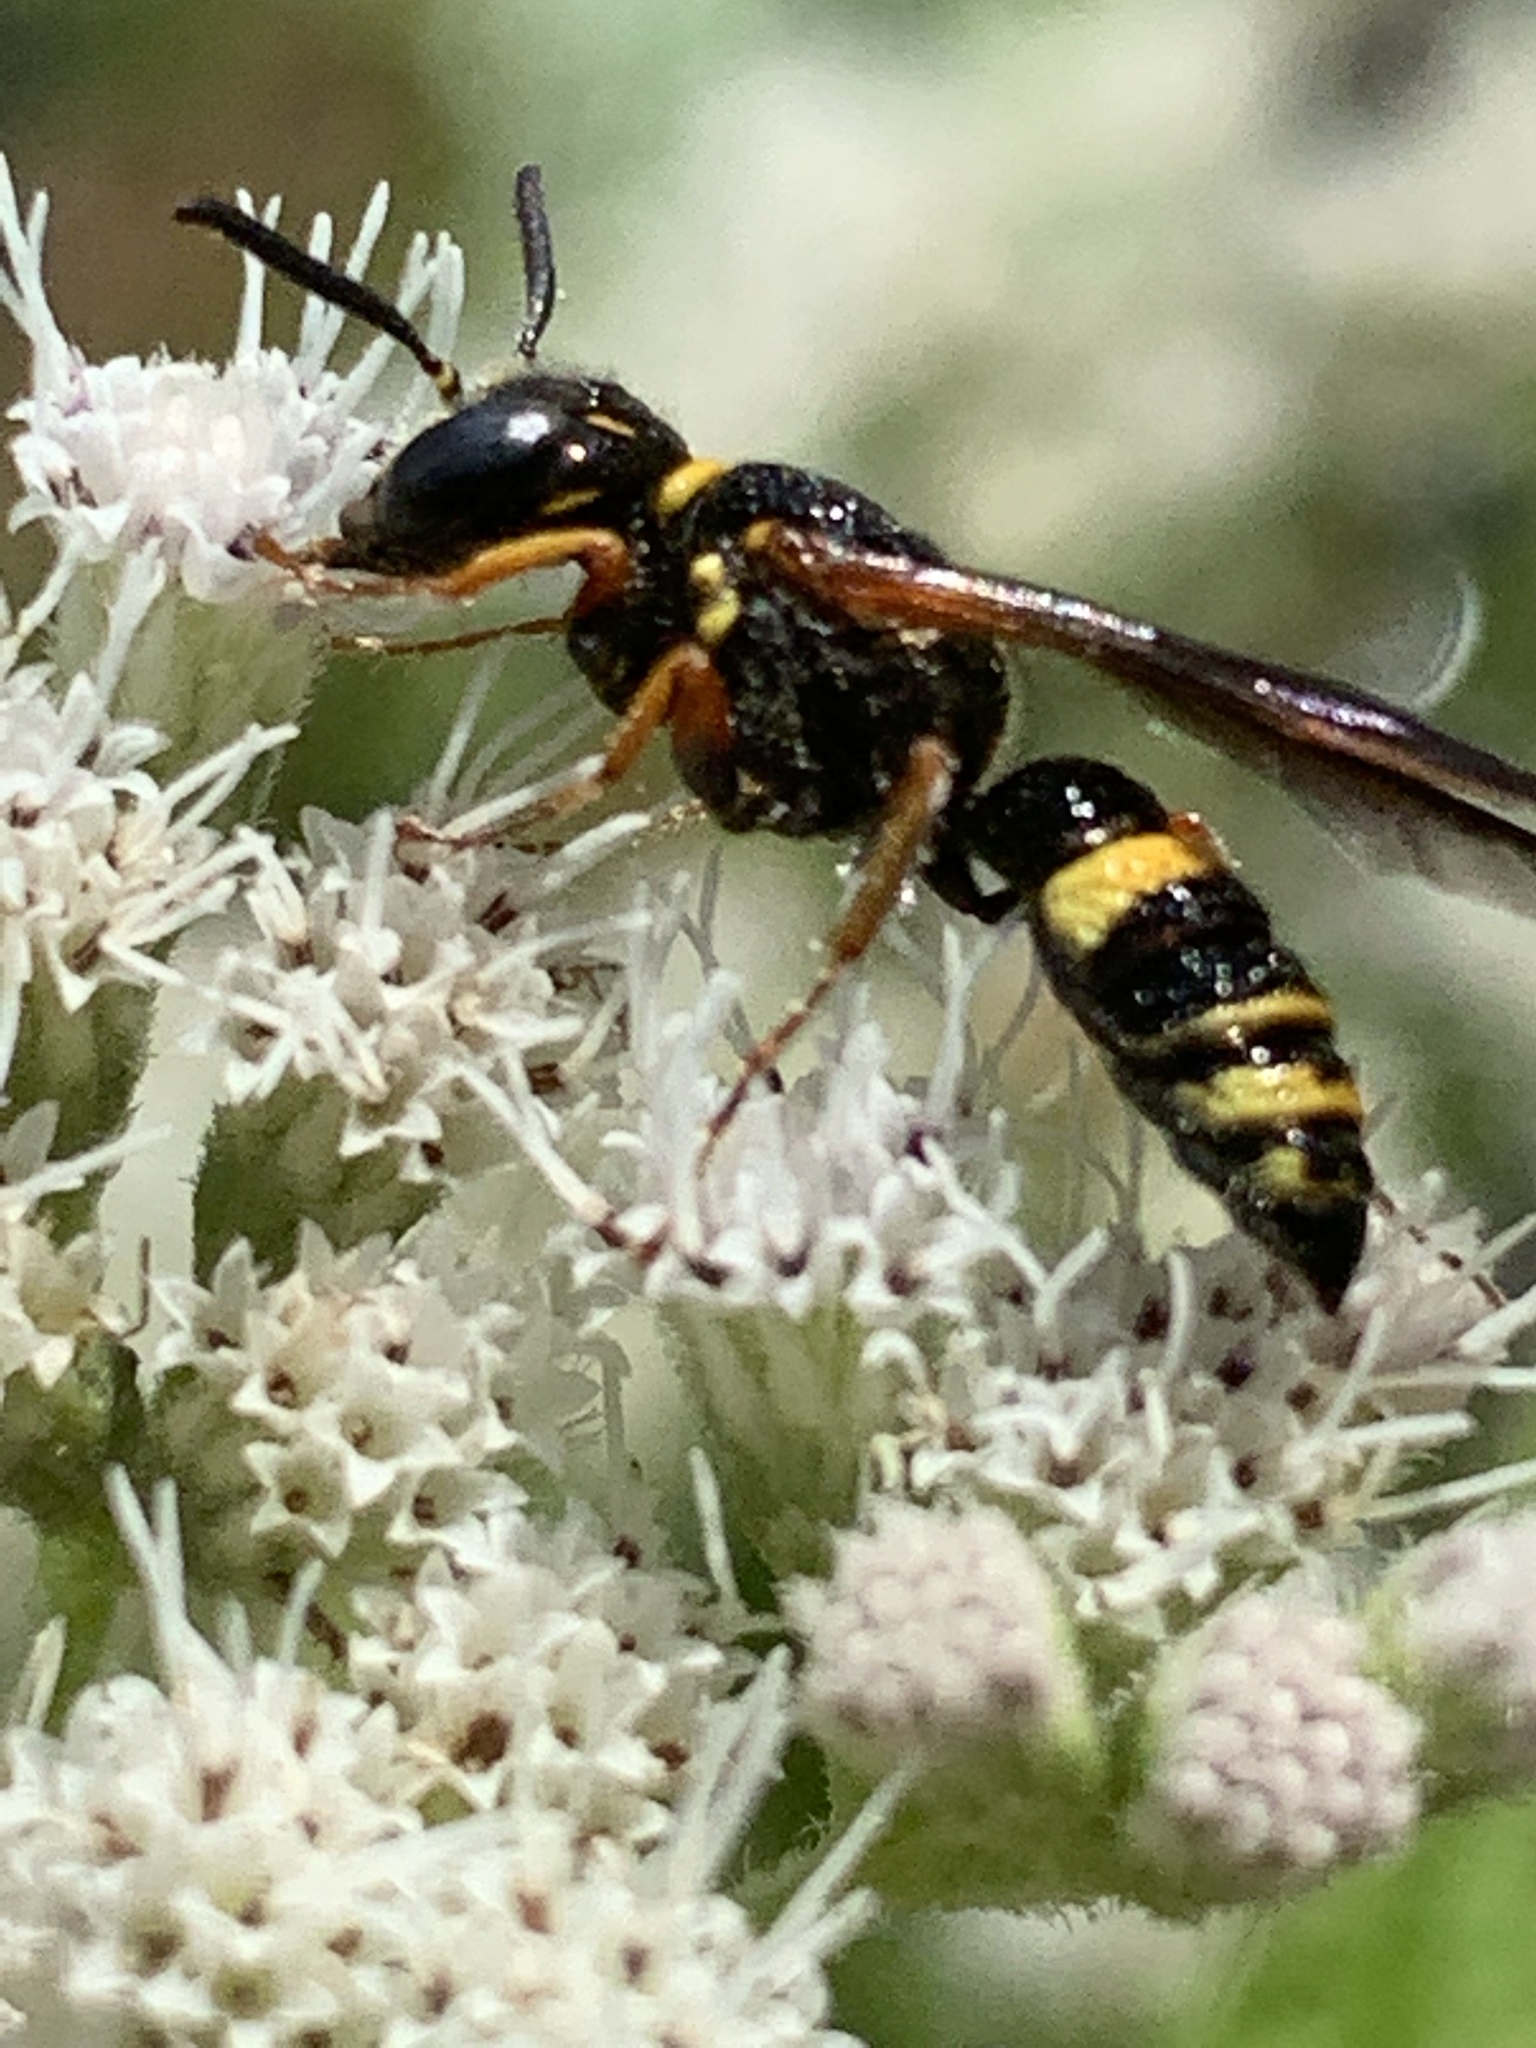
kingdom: Animalia
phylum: Arthropoda
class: Insecta
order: Hymenoptera
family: Crabronidae
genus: Philanthus
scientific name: Philanthus gibbosus
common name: Humped beewolf
